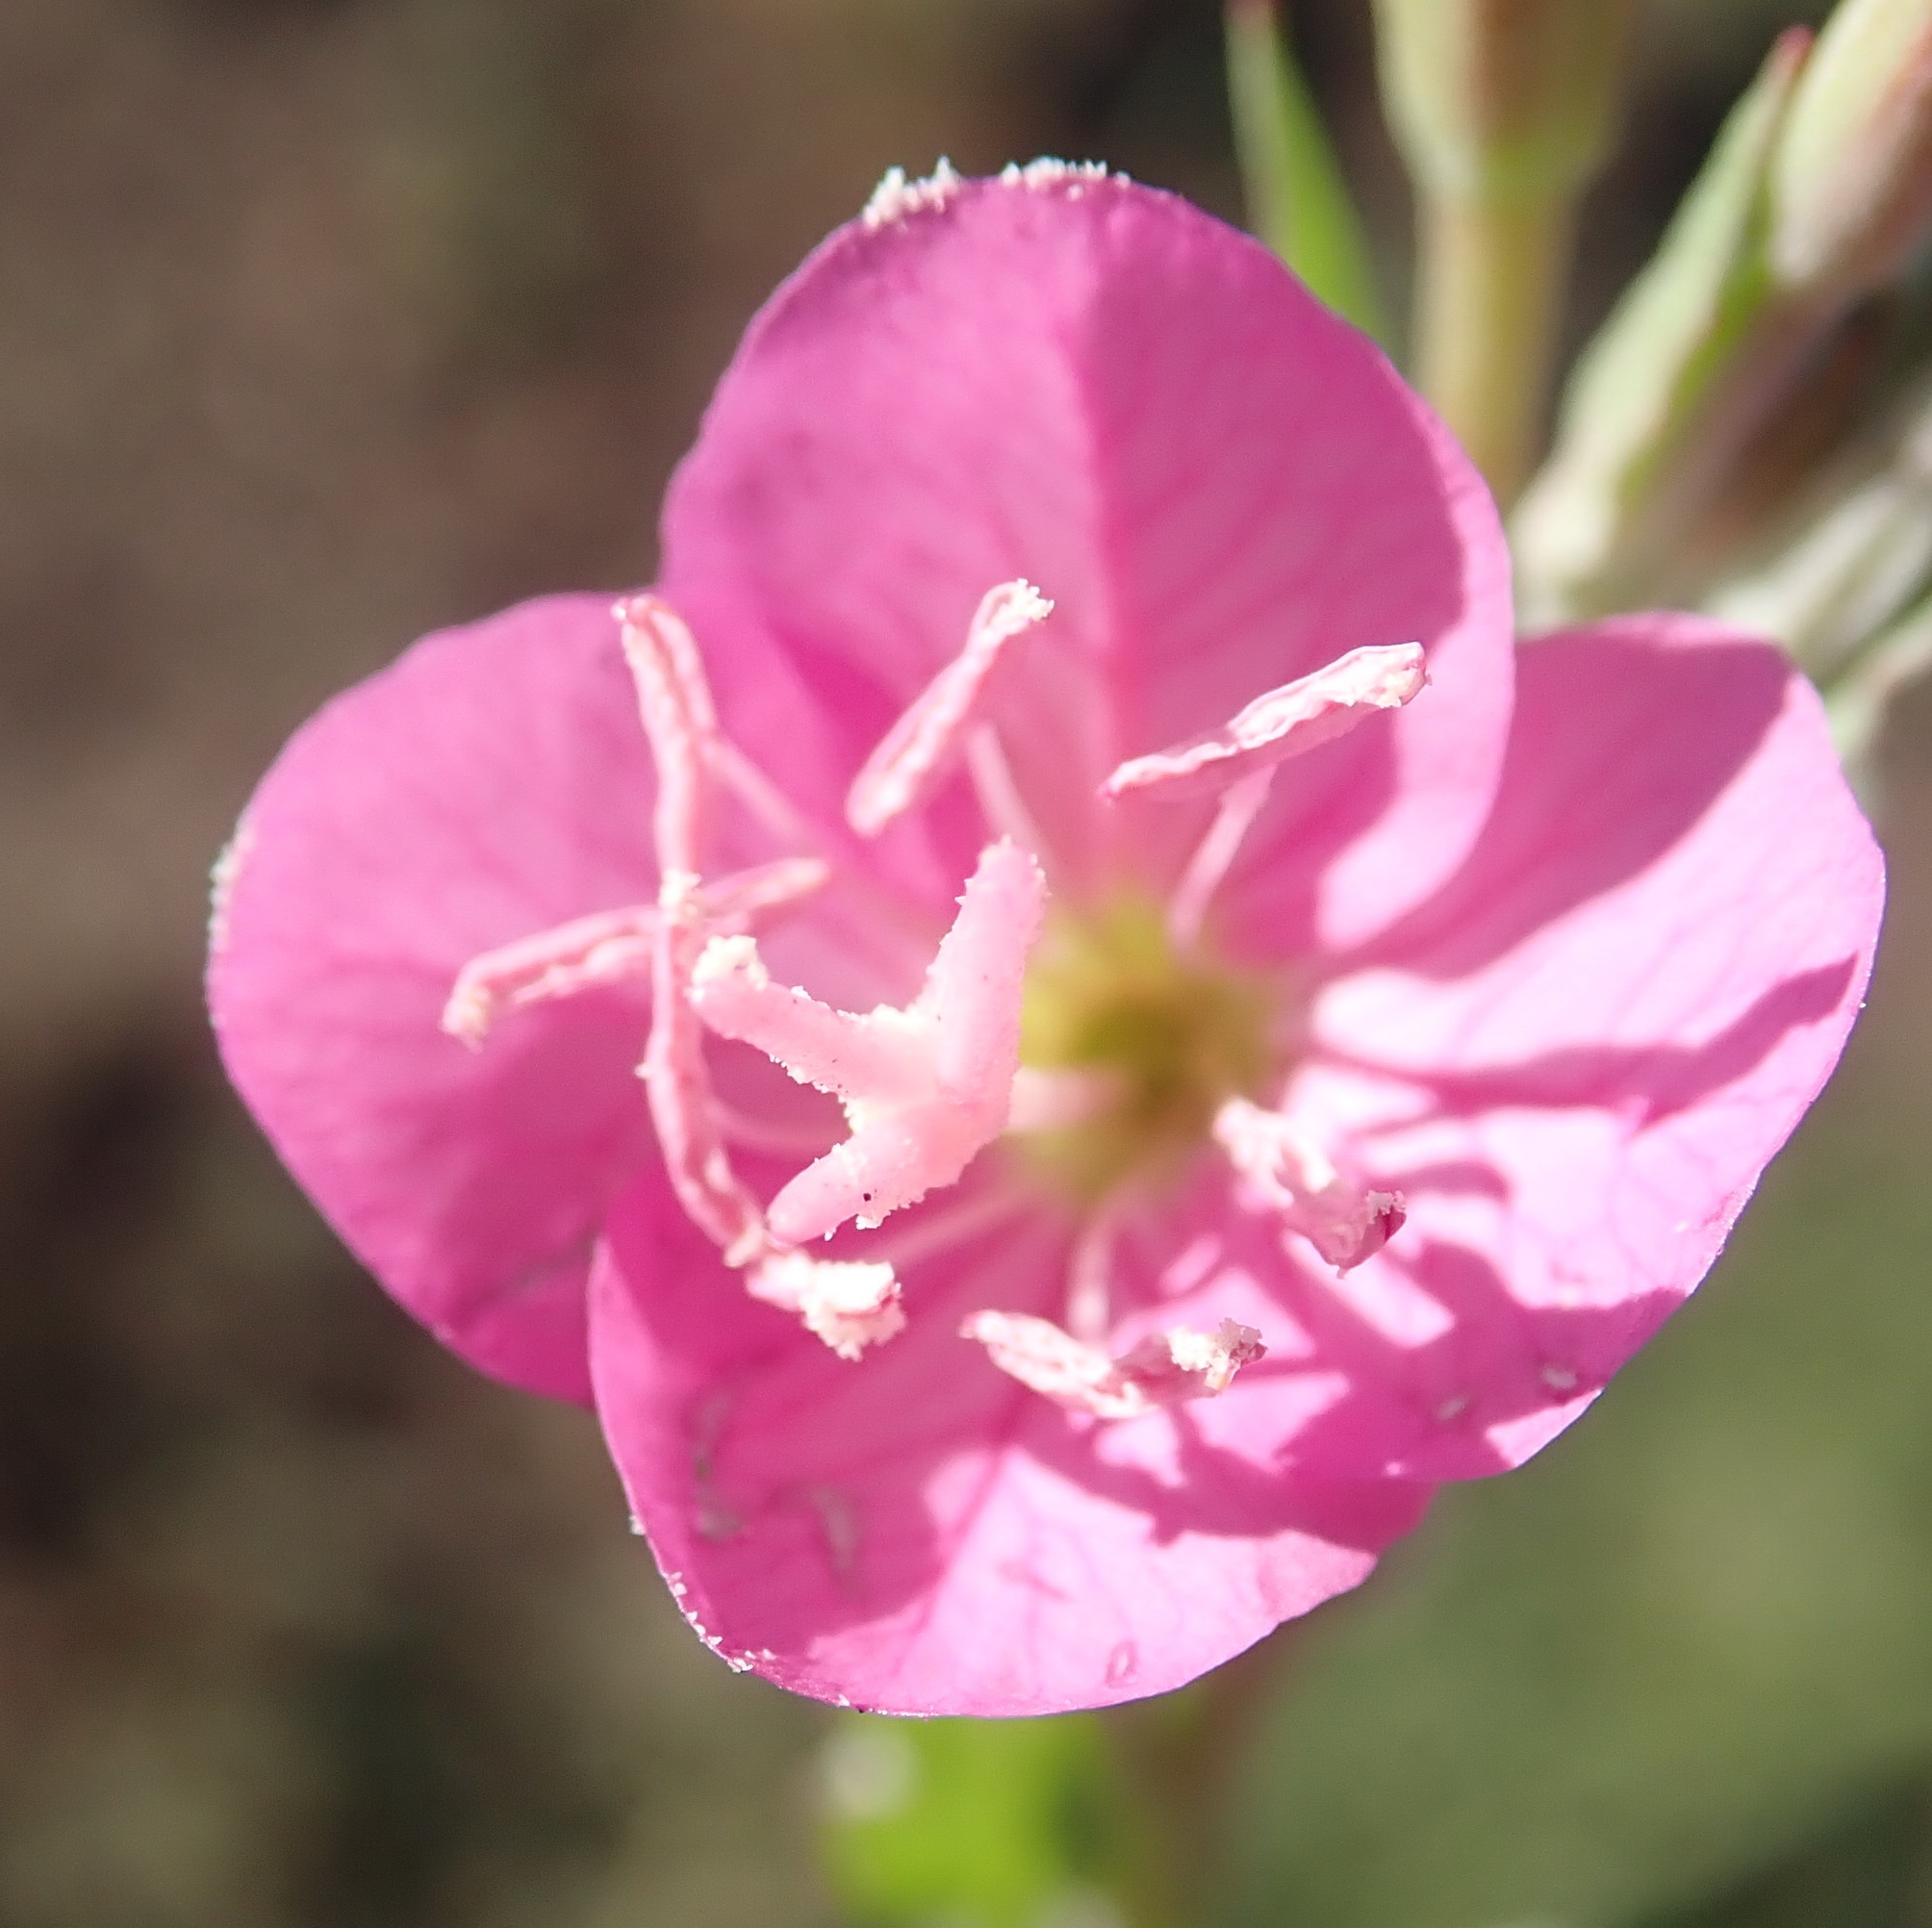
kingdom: Plantae
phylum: Tracheophyta
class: Magnoliopsida
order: Myrtales
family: Onagraceae
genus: Oenothera
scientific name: Oenothera rosea
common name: Rosy evening-primrose
